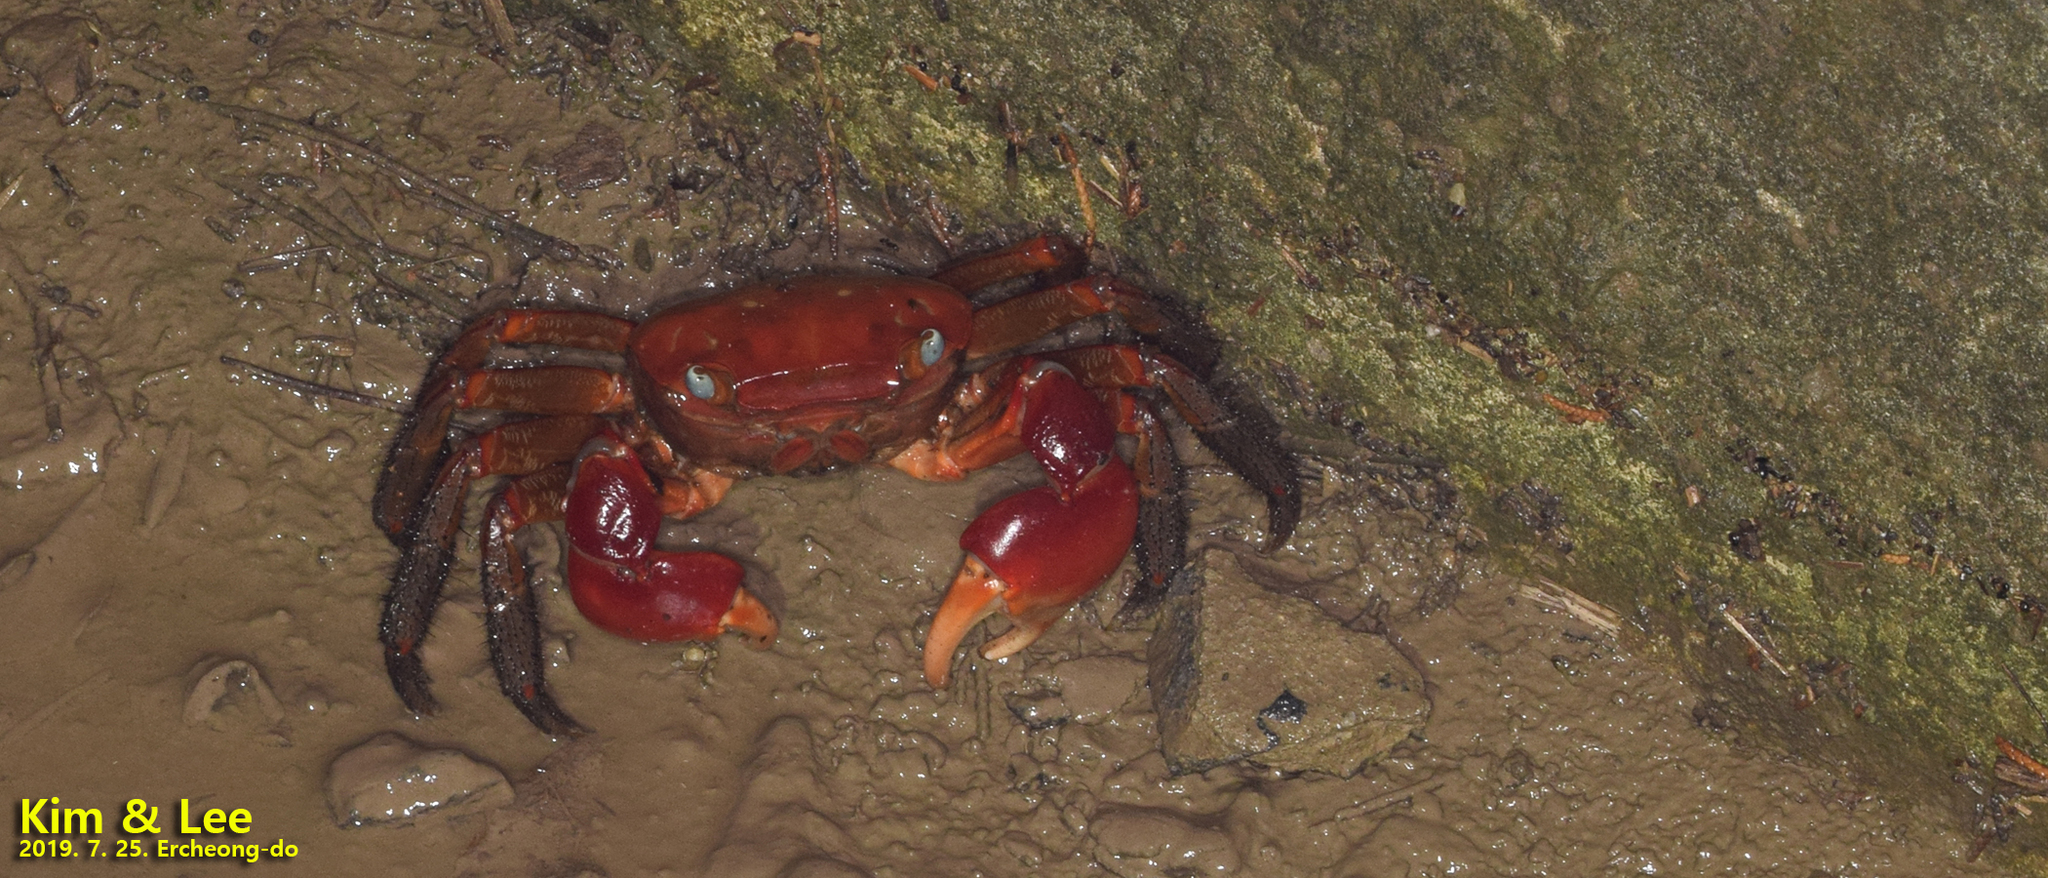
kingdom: Animalia
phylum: Arthropoda
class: Malacostraca
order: Decapoda
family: Sesarmidae
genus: Chiromantes
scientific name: Chiromantes haematocheir
